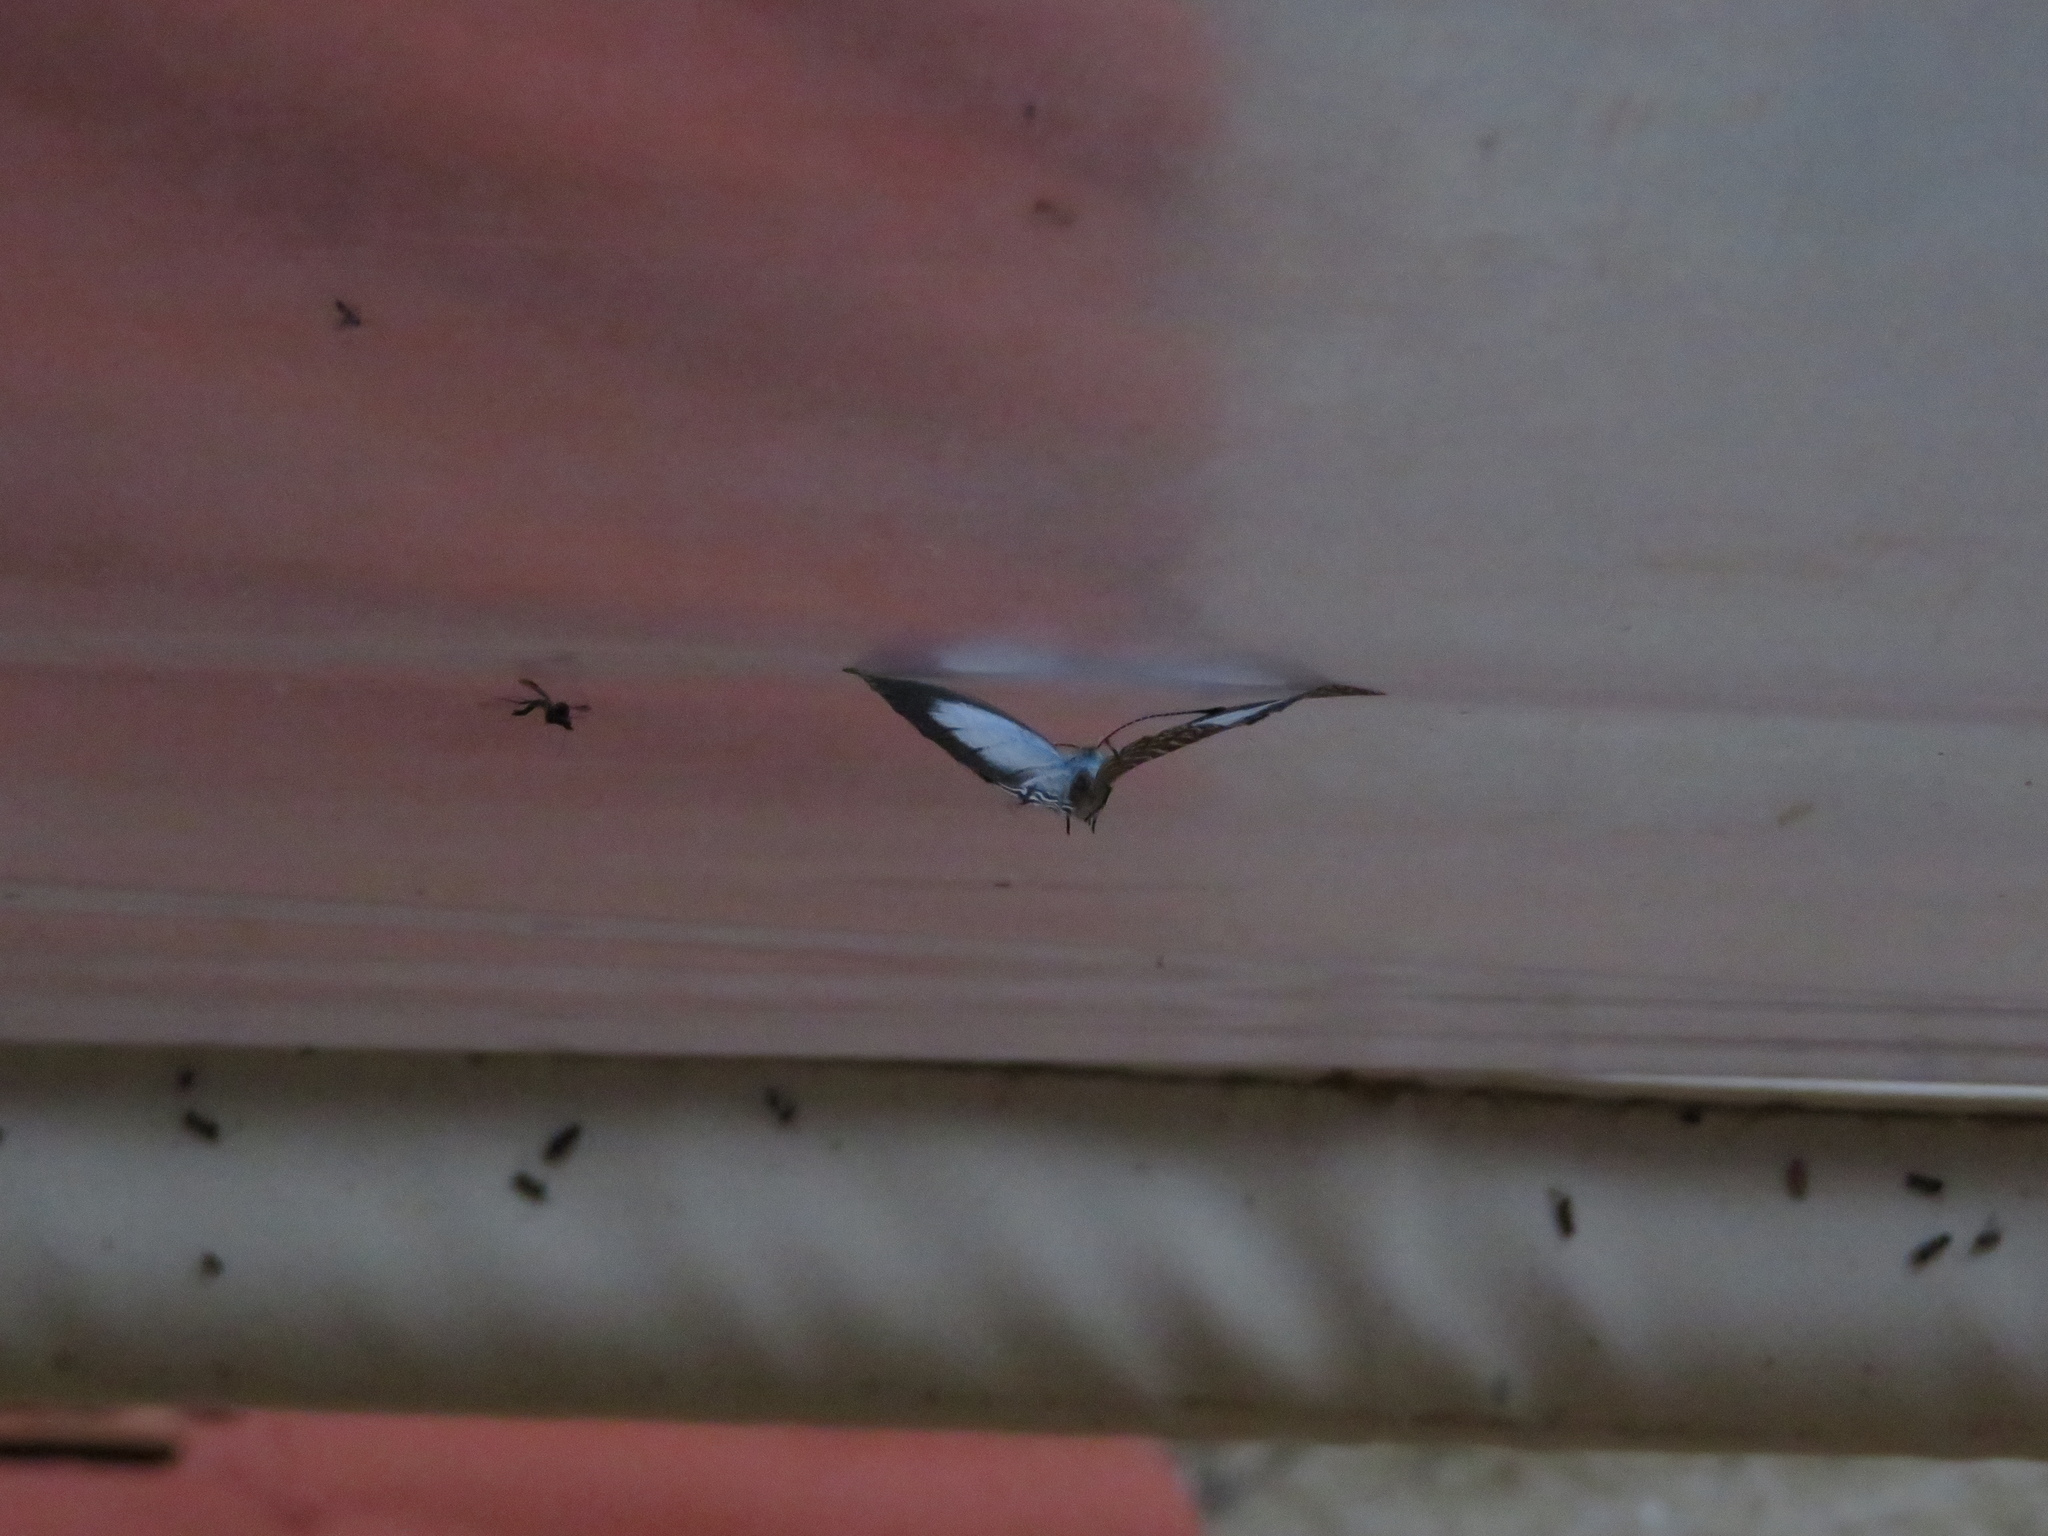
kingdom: Animalia
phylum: Arthropoda
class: Insecta
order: Lepidoptera
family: Lycaenidae
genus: Jamides
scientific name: Jamides alecto
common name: Metallic cerulean
